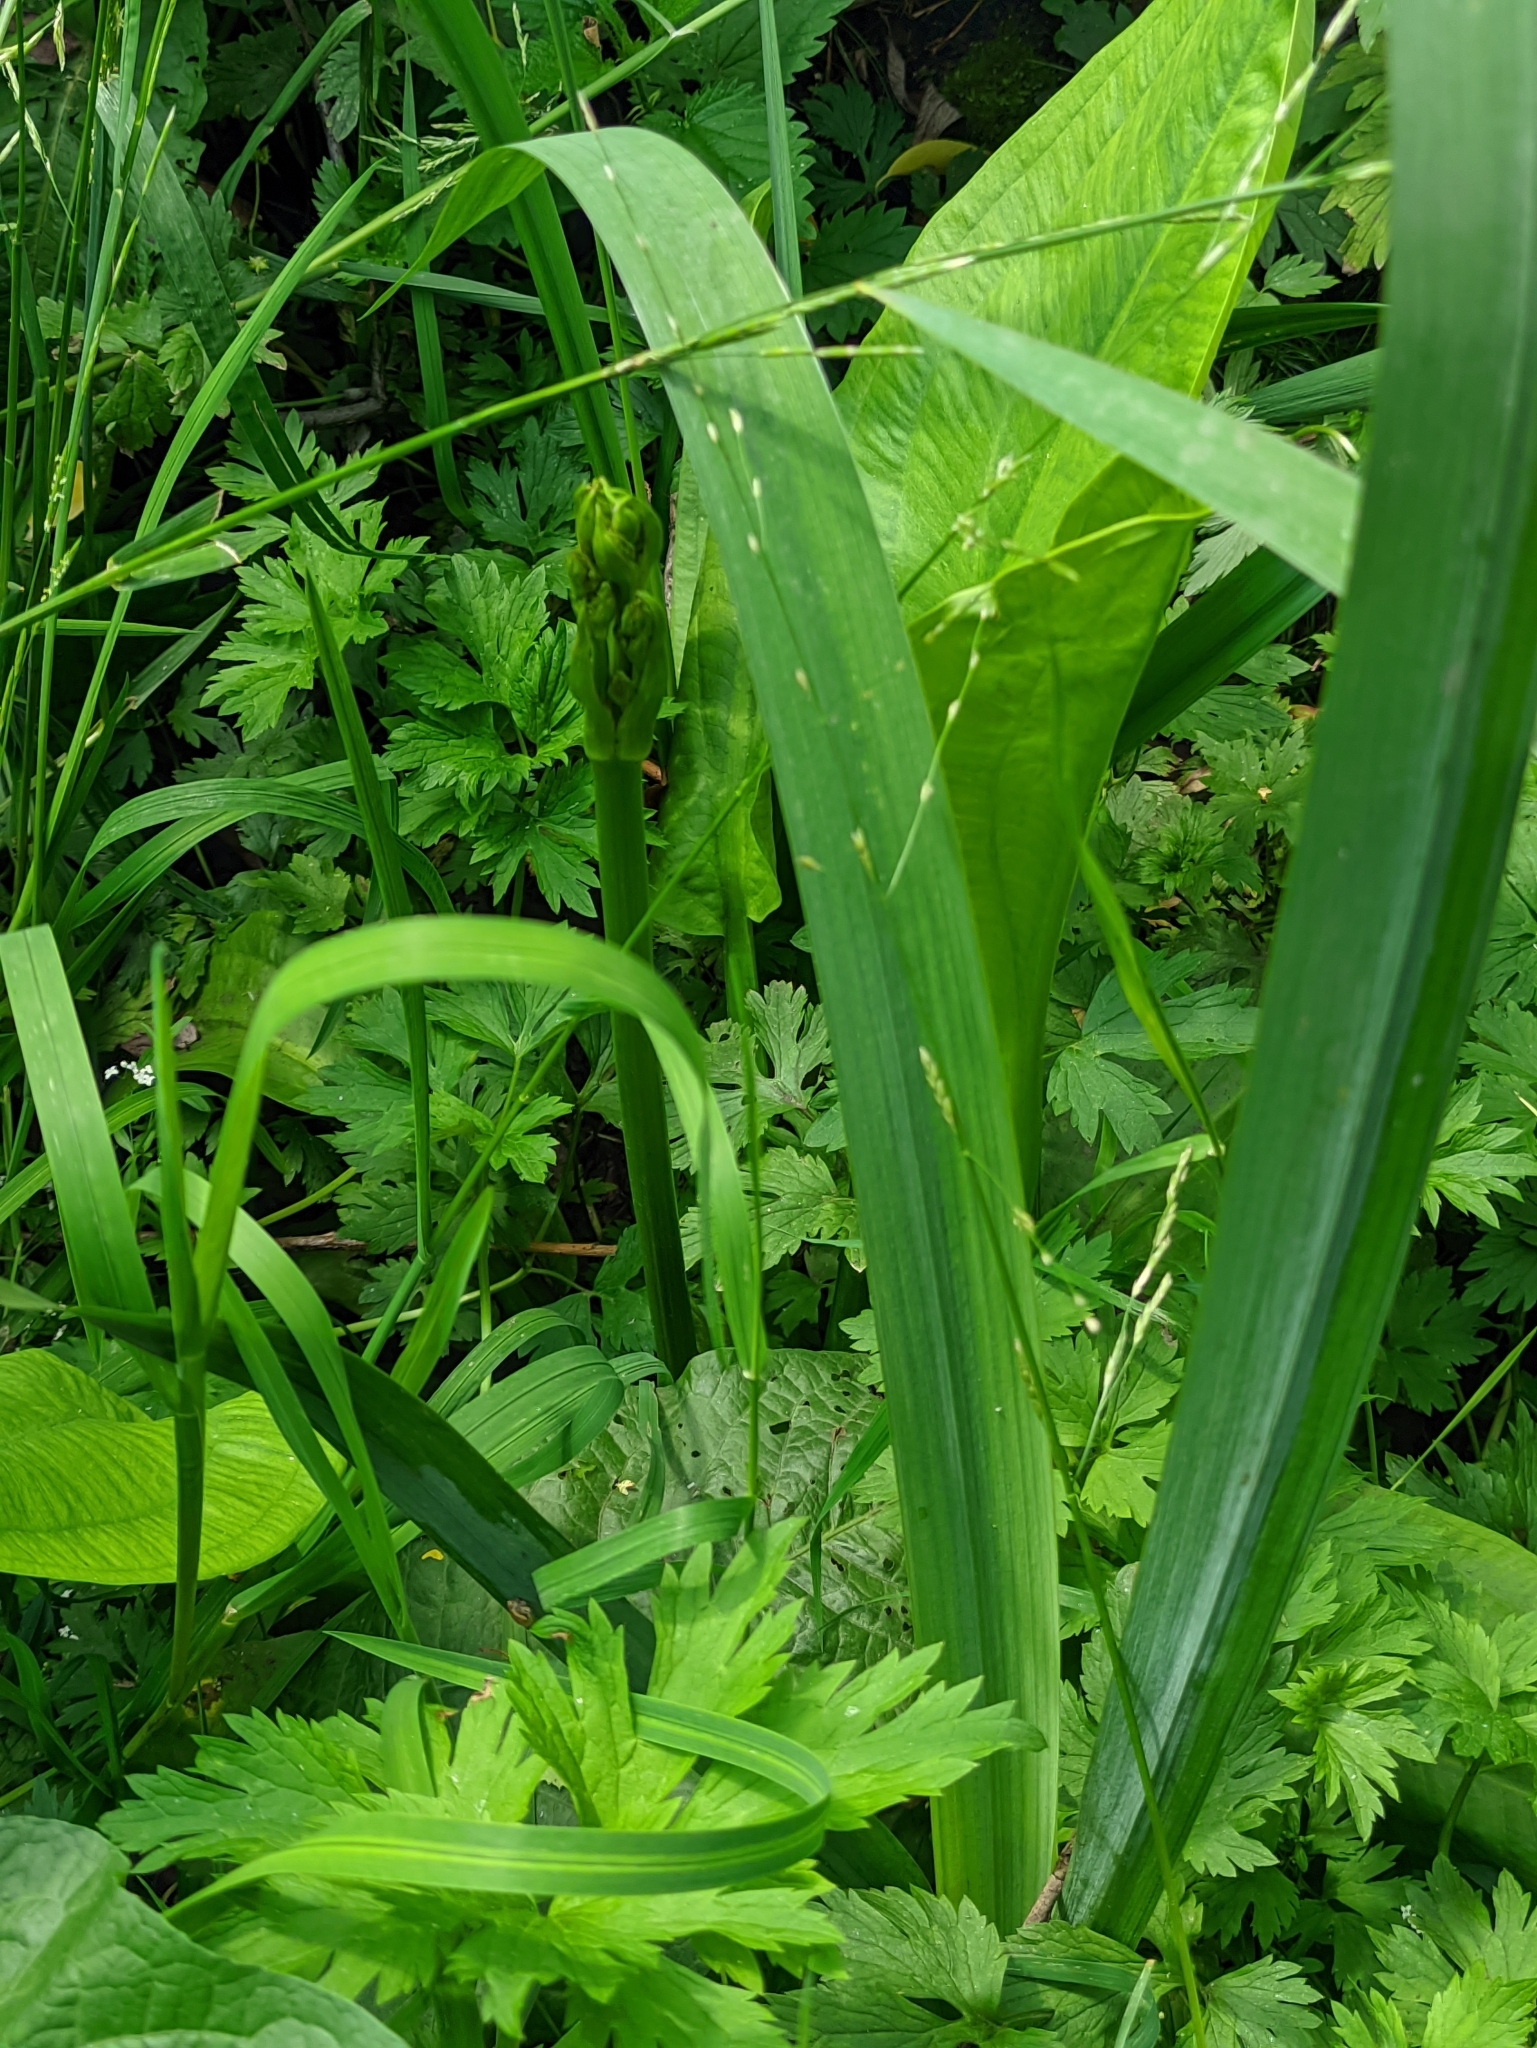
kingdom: Plantae
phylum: Tracheophyta
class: Liliopsida
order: Alismatales
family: Alismataceae
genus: Alisma
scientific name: Alisma plantago-aquatica
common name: Water-plantain
